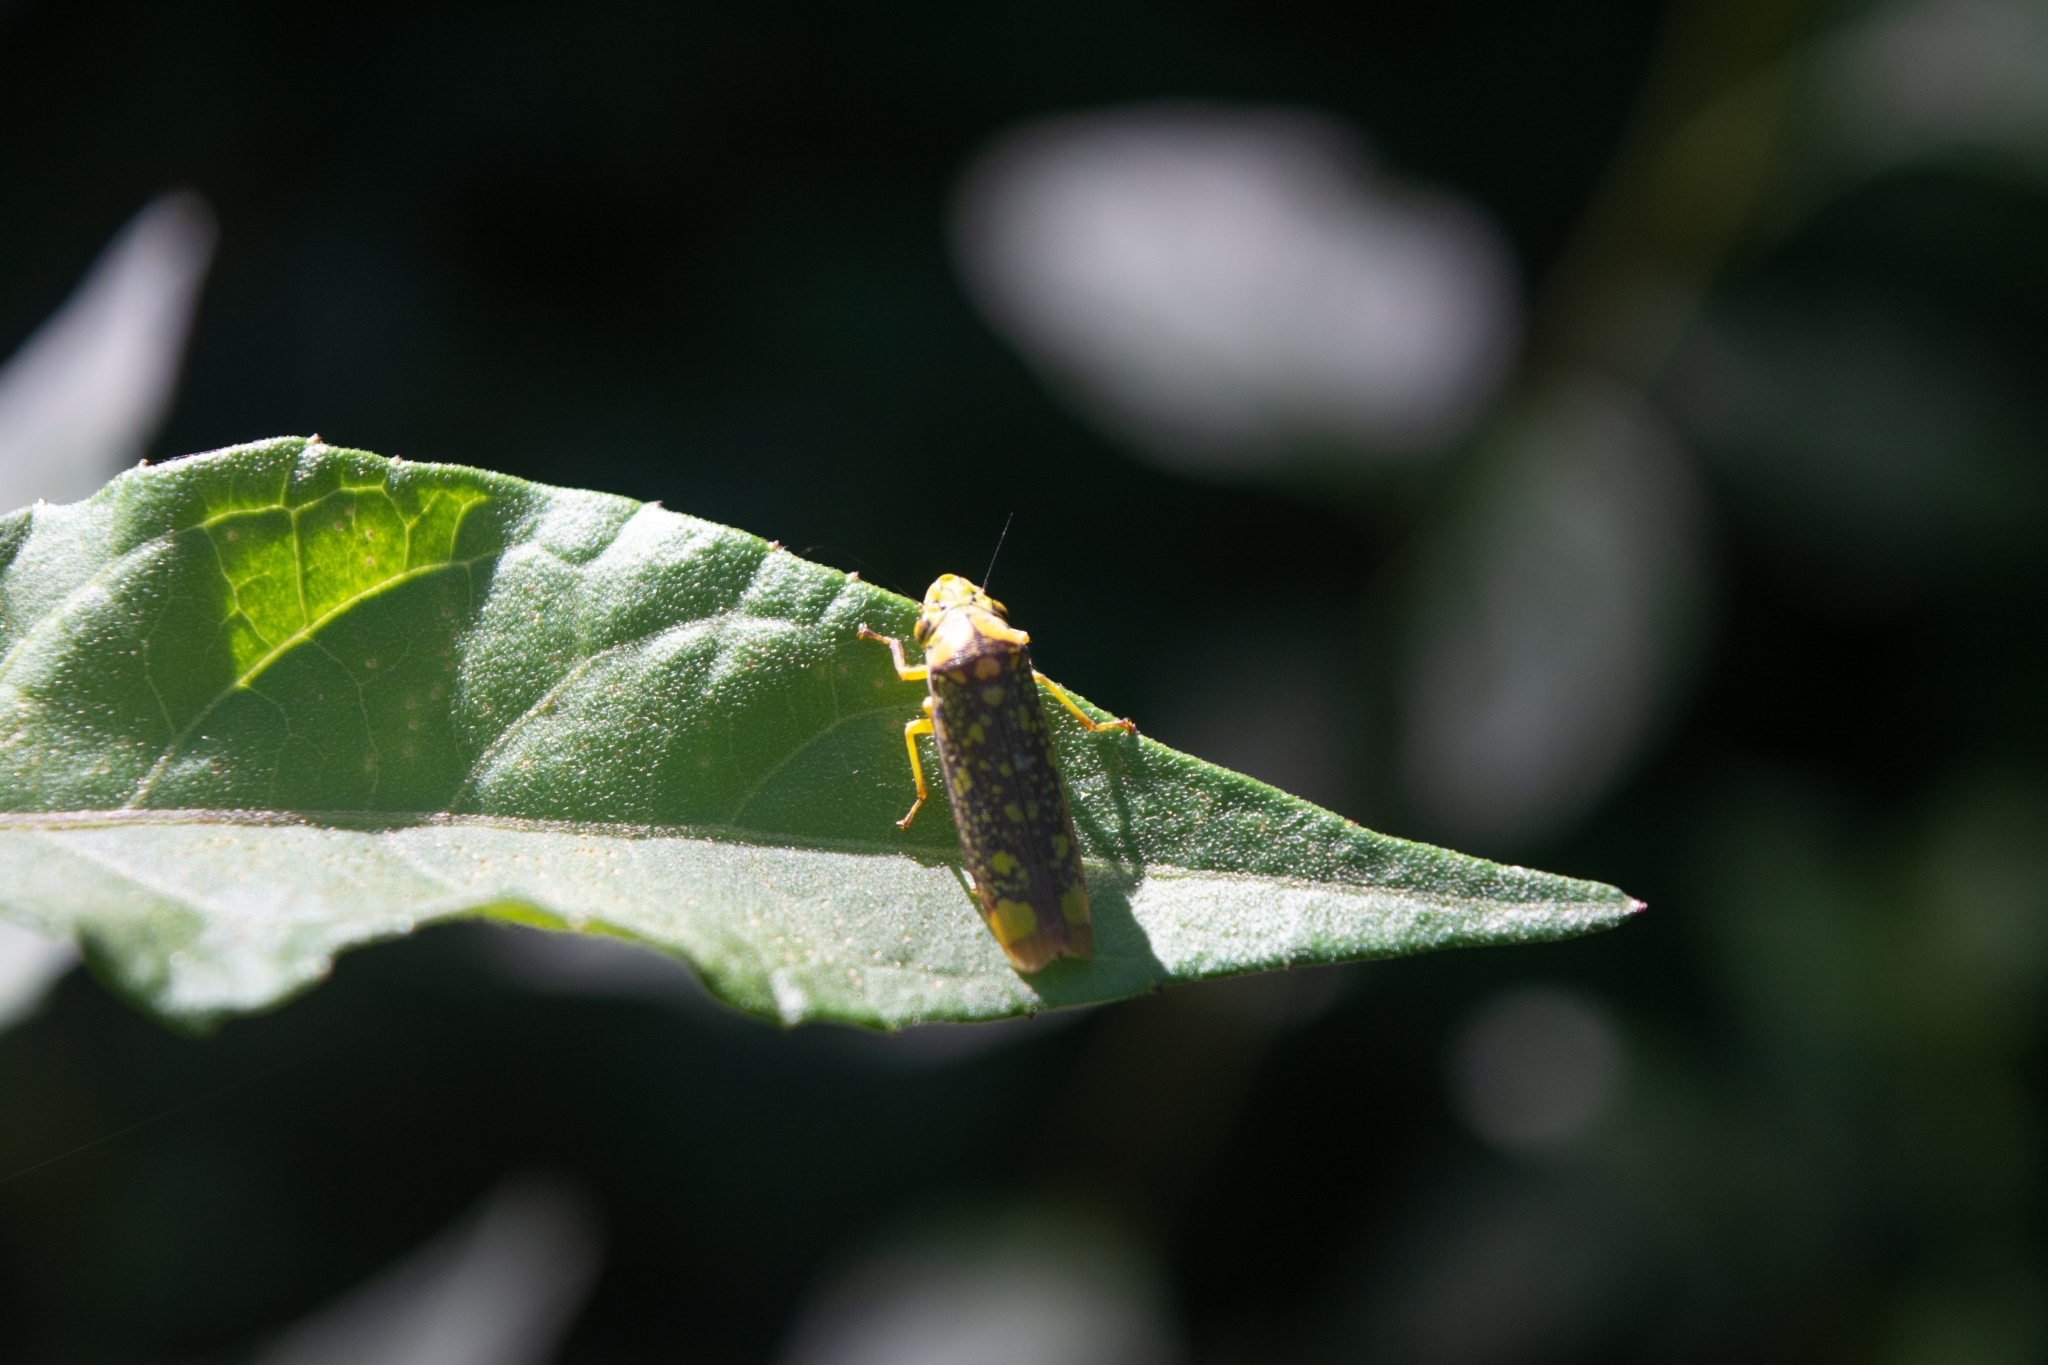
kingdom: Animalia
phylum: Arthropoda
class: Insecta
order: Hemiptera
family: Cicadellidae
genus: Aulacizes
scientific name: Aulacizes conspersa
